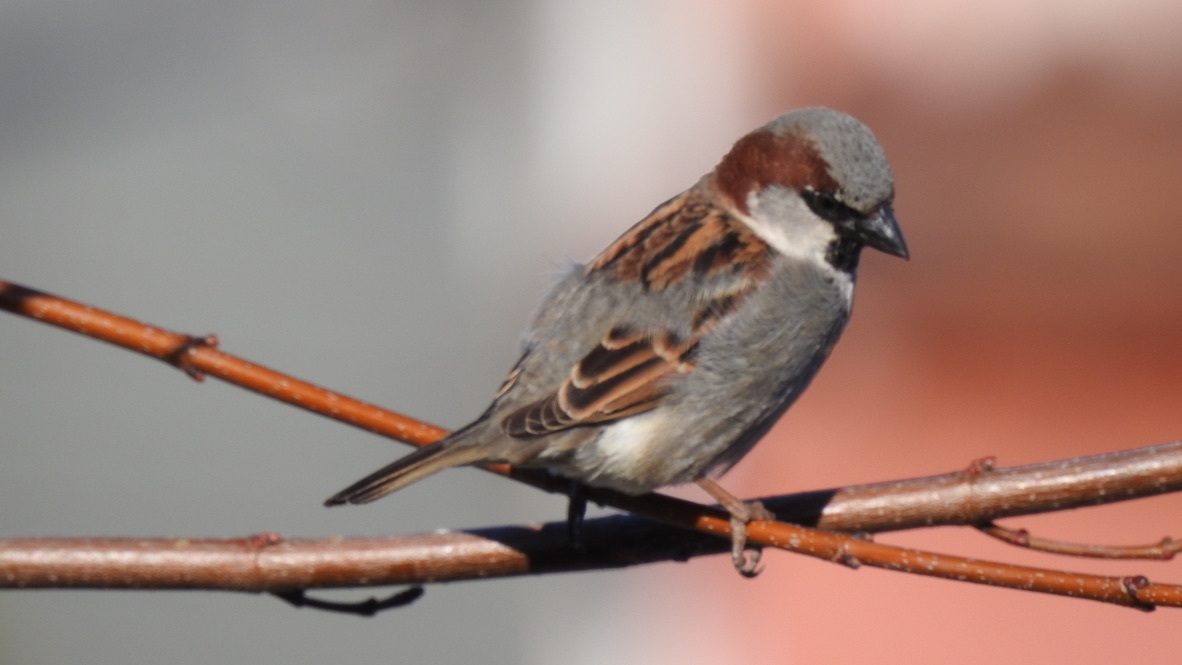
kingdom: Animalia
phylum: Chordata
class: Aves
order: Passeriformes
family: Passeridae
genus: Passer
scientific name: Passer domesticus
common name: House sparrow
